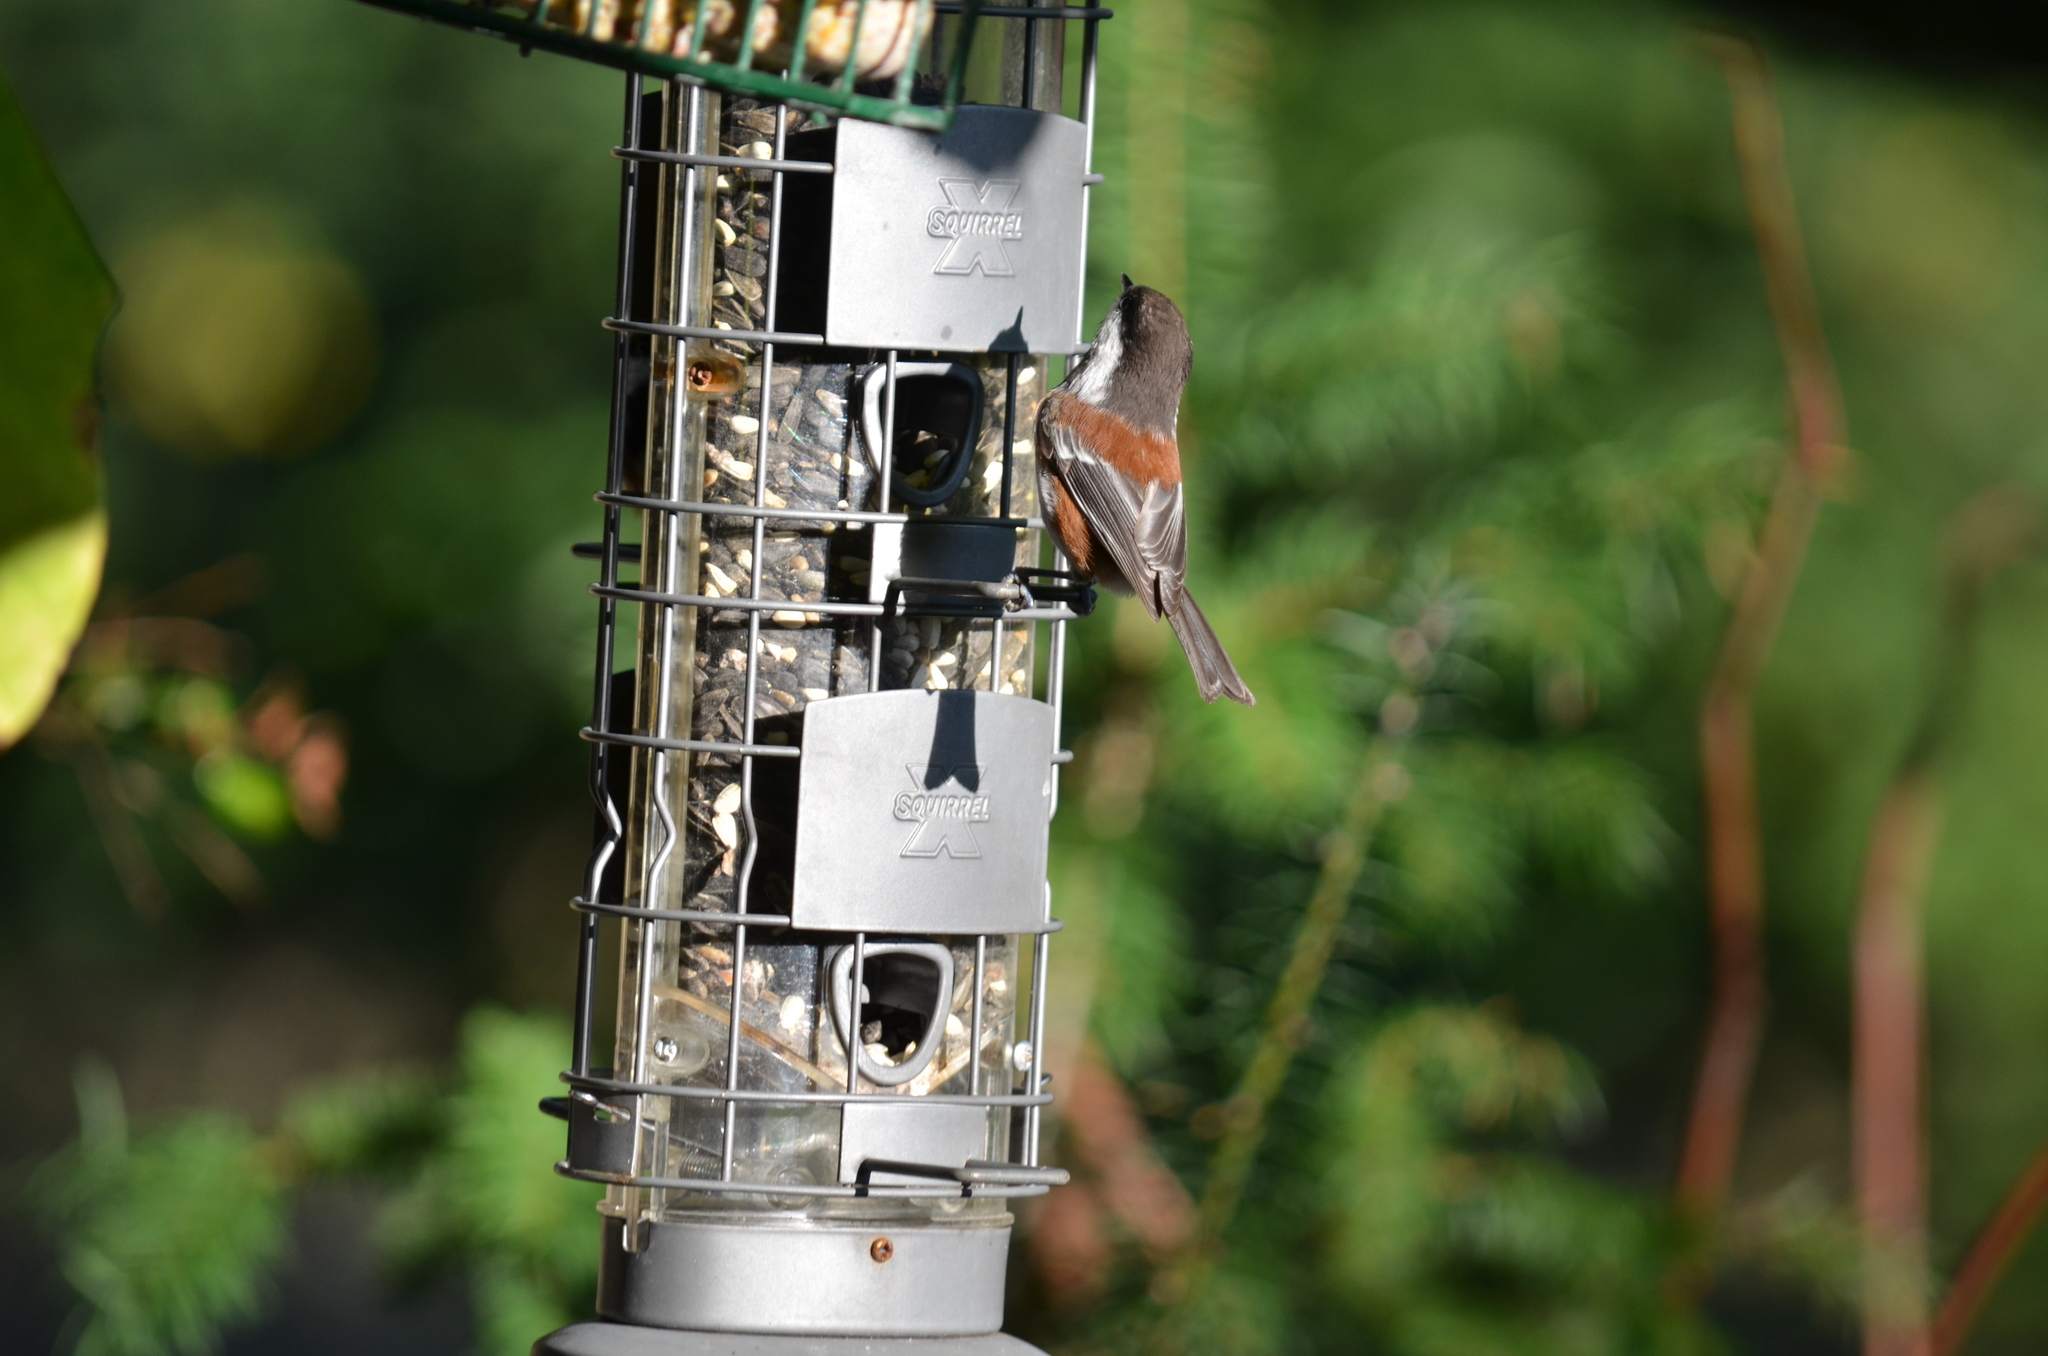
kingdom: Animalia
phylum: Chordata
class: Aves
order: Passeriformes
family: Paridae
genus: Poecile
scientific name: Poecile rufescens
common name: Chestnut-backed chickadee
